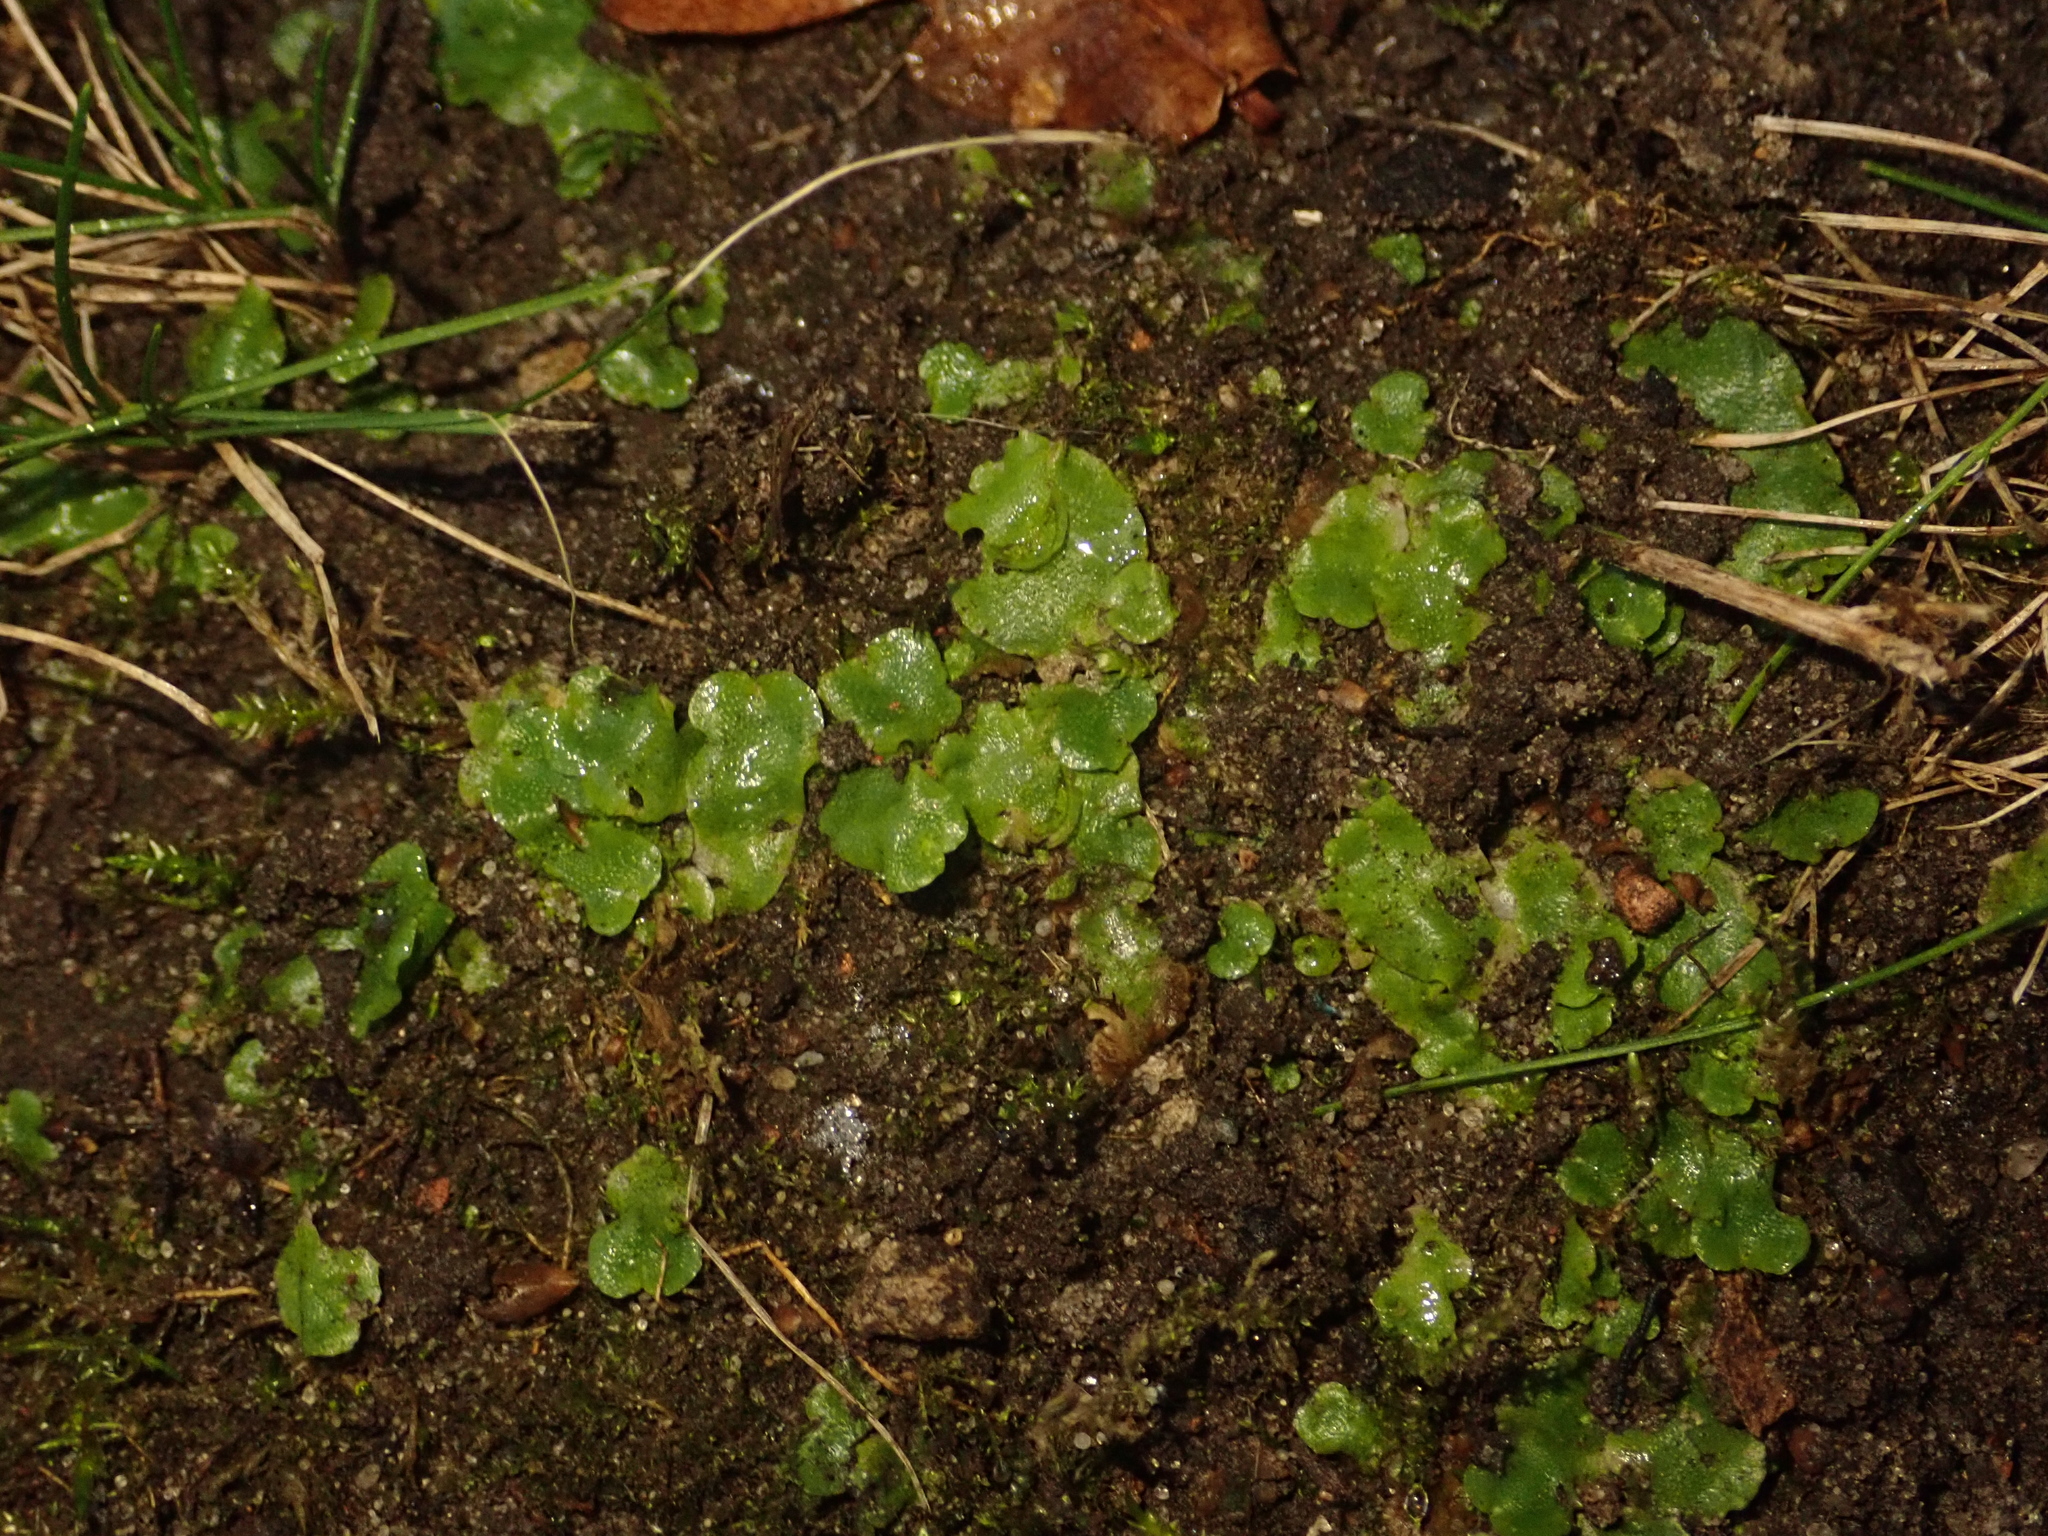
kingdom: Plantae
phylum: Marchantiophyta
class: Marchantiopsida
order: Lunulariales
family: Lunulariaceae
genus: Lunularia
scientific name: Lunularia cruciata
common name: Crescent-cup liverwort
